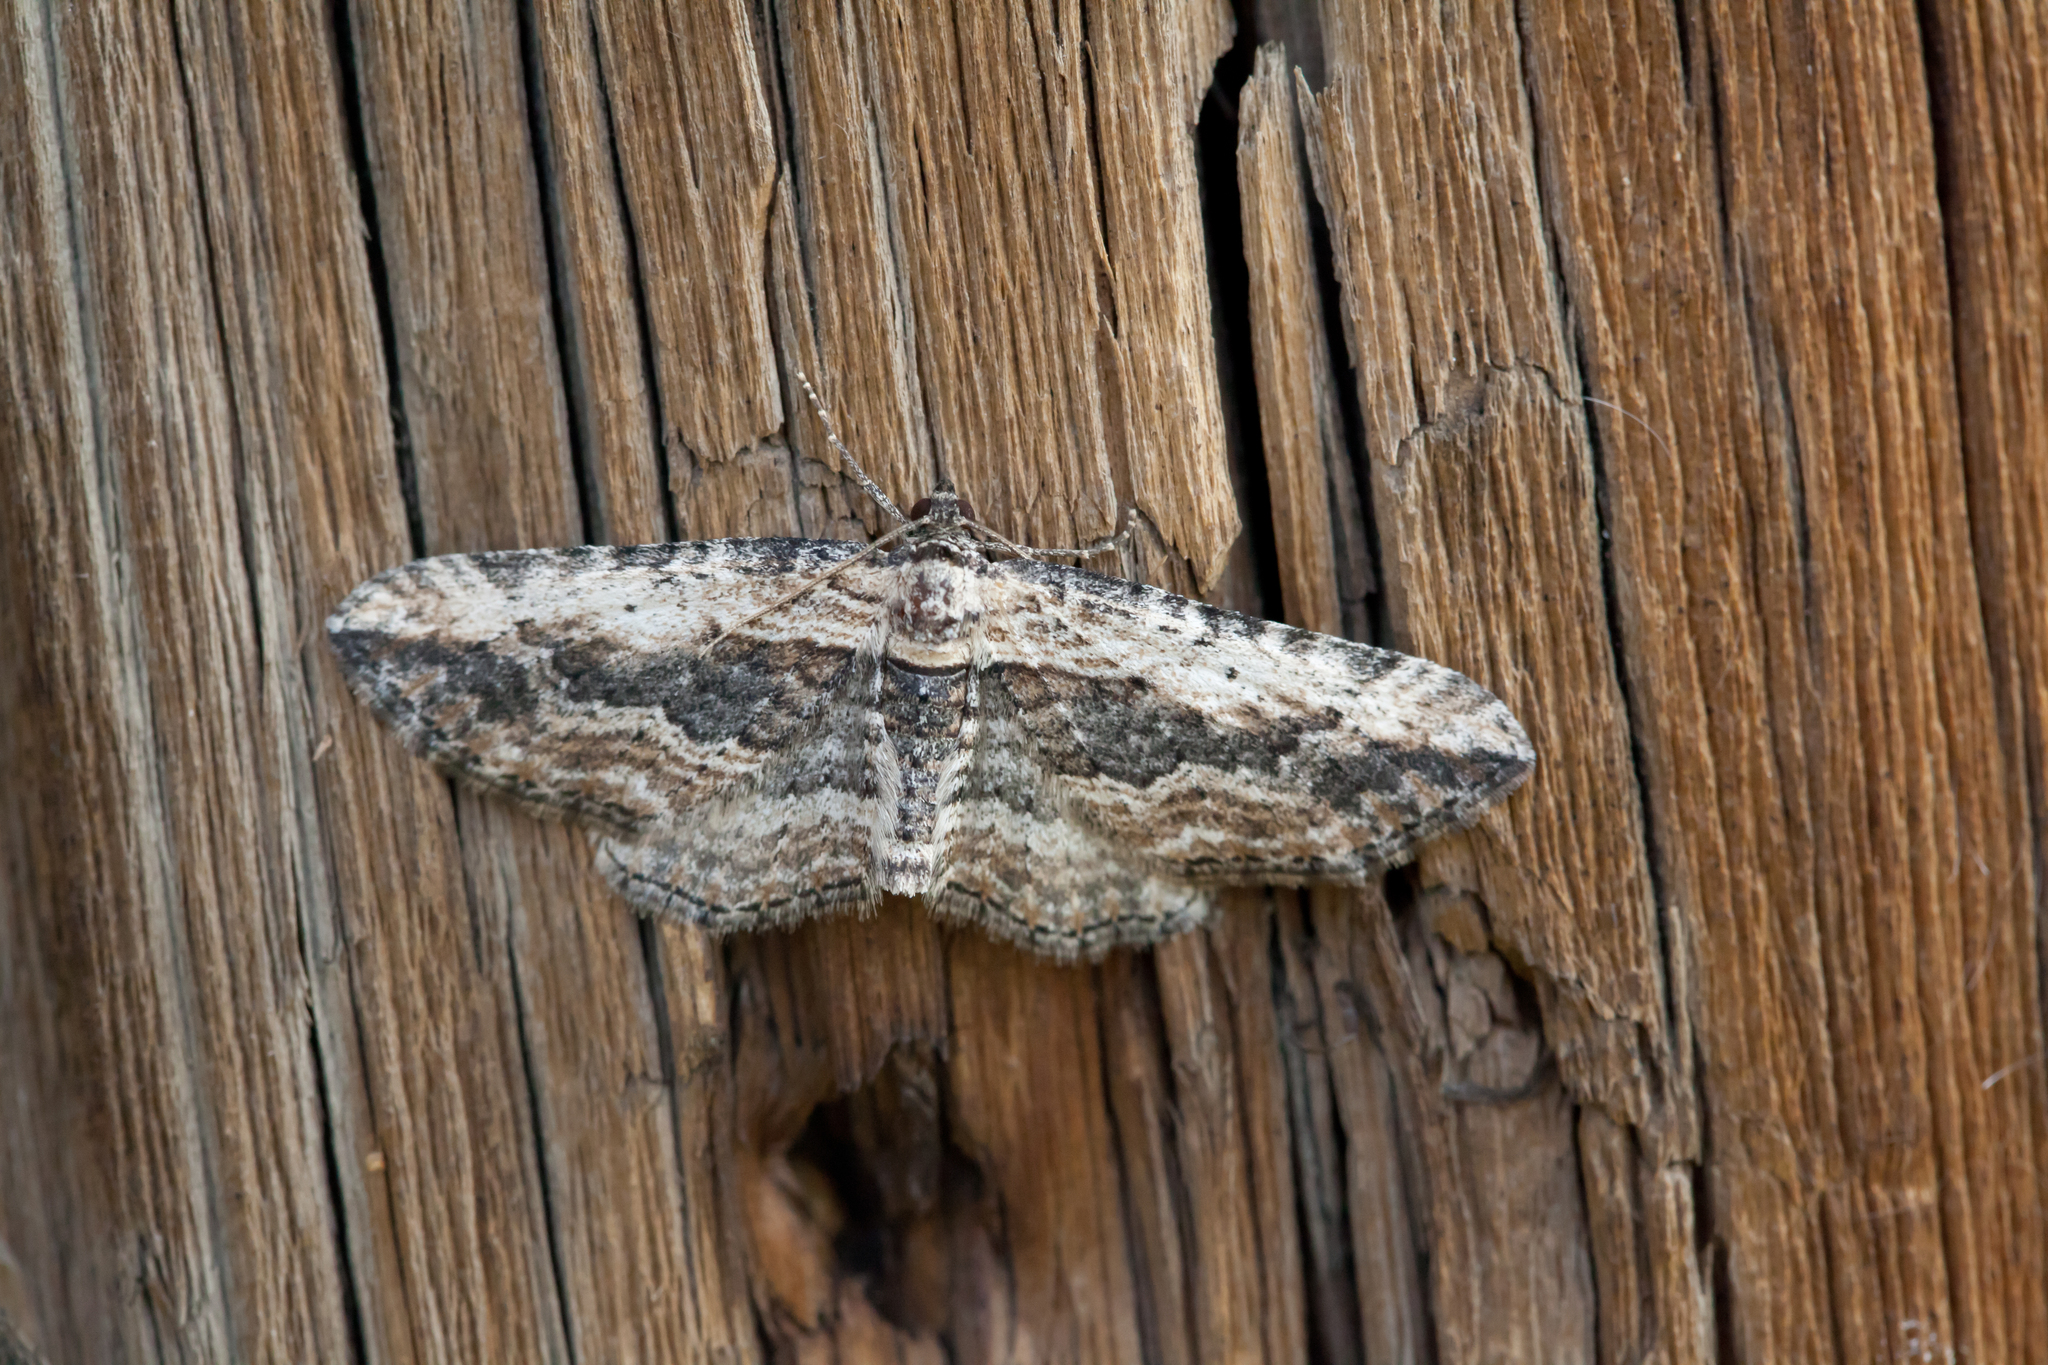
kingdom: Animalia
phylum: Arthropoda
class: Insecta
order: Lepidoptera
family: Geometridae
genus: Horisme
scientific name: Horisme vitalbata
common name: Small waved umber
